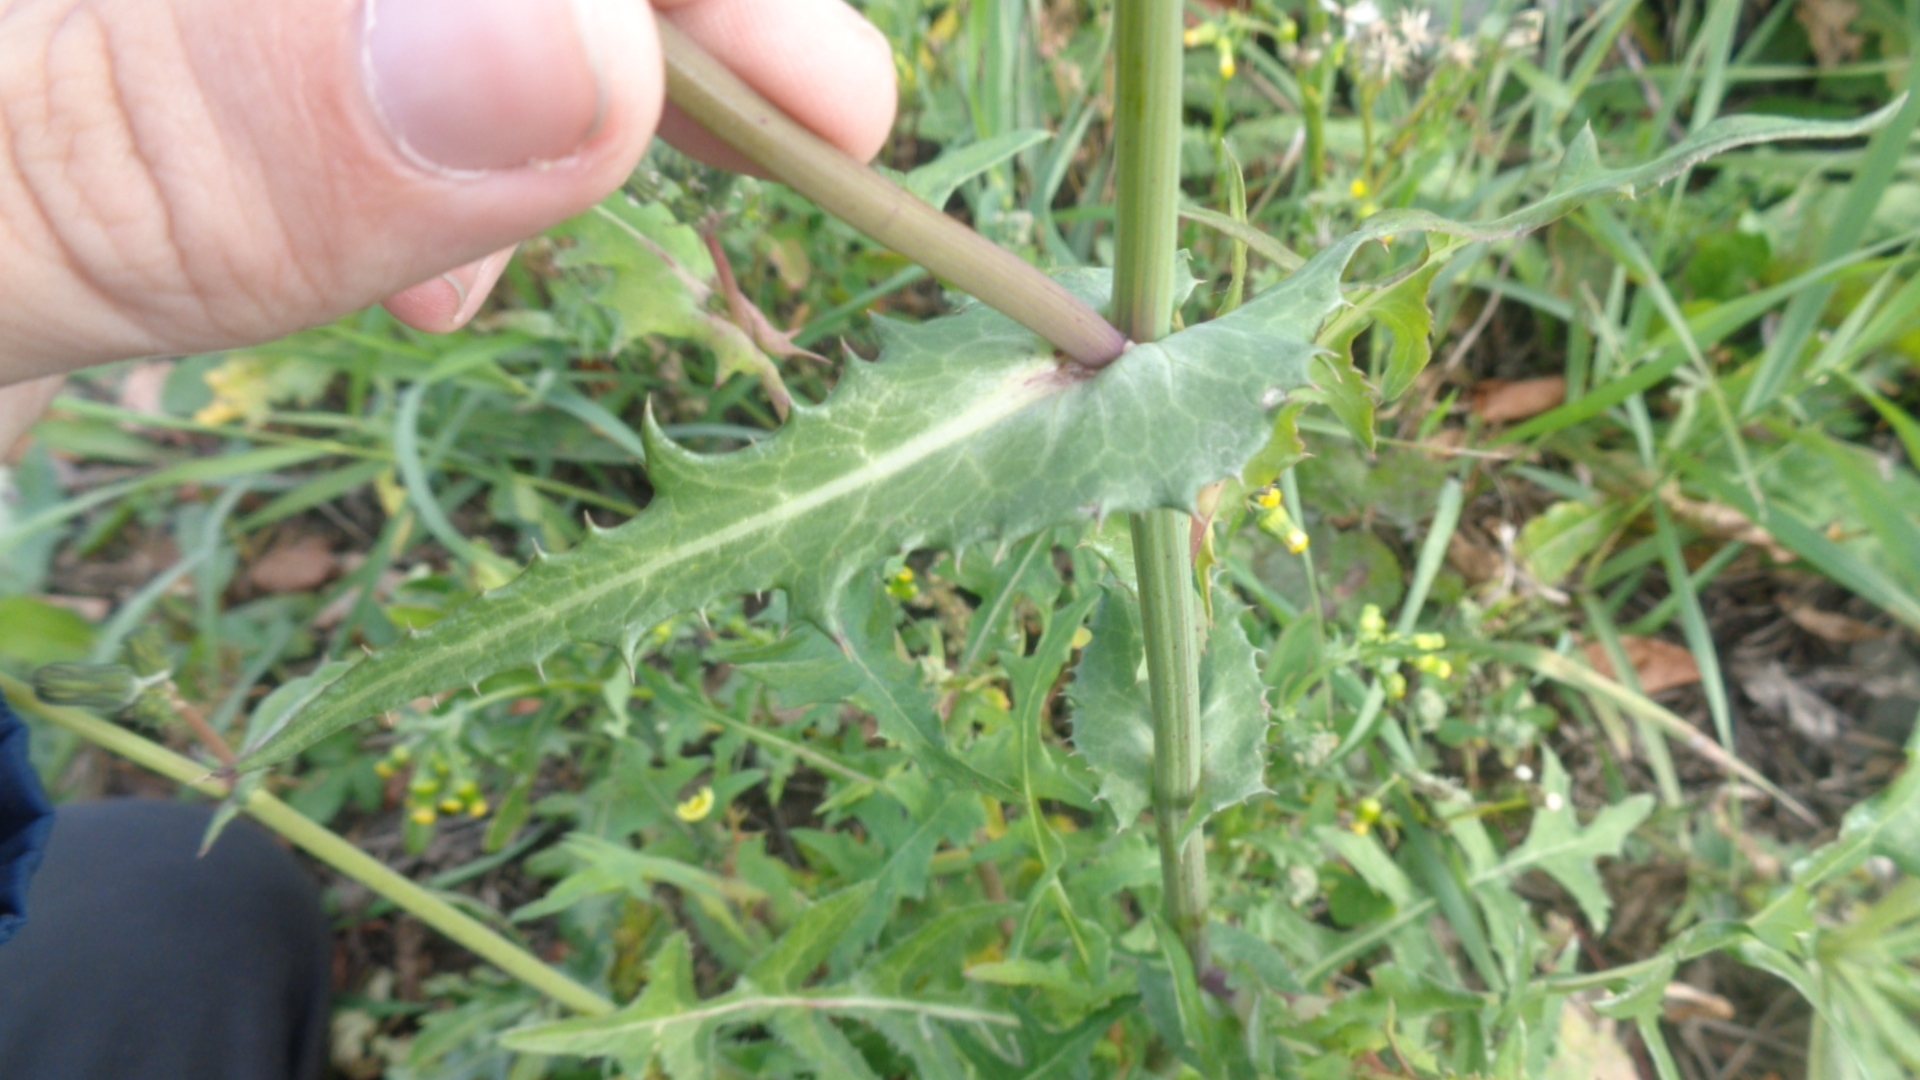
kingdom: Plantae
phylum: Tracheophyta
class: Magnoliopsida
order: Asterales
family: Asteraceae
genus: Sonchus
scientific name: Sonchus oleraceus
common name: Common sowthistle
